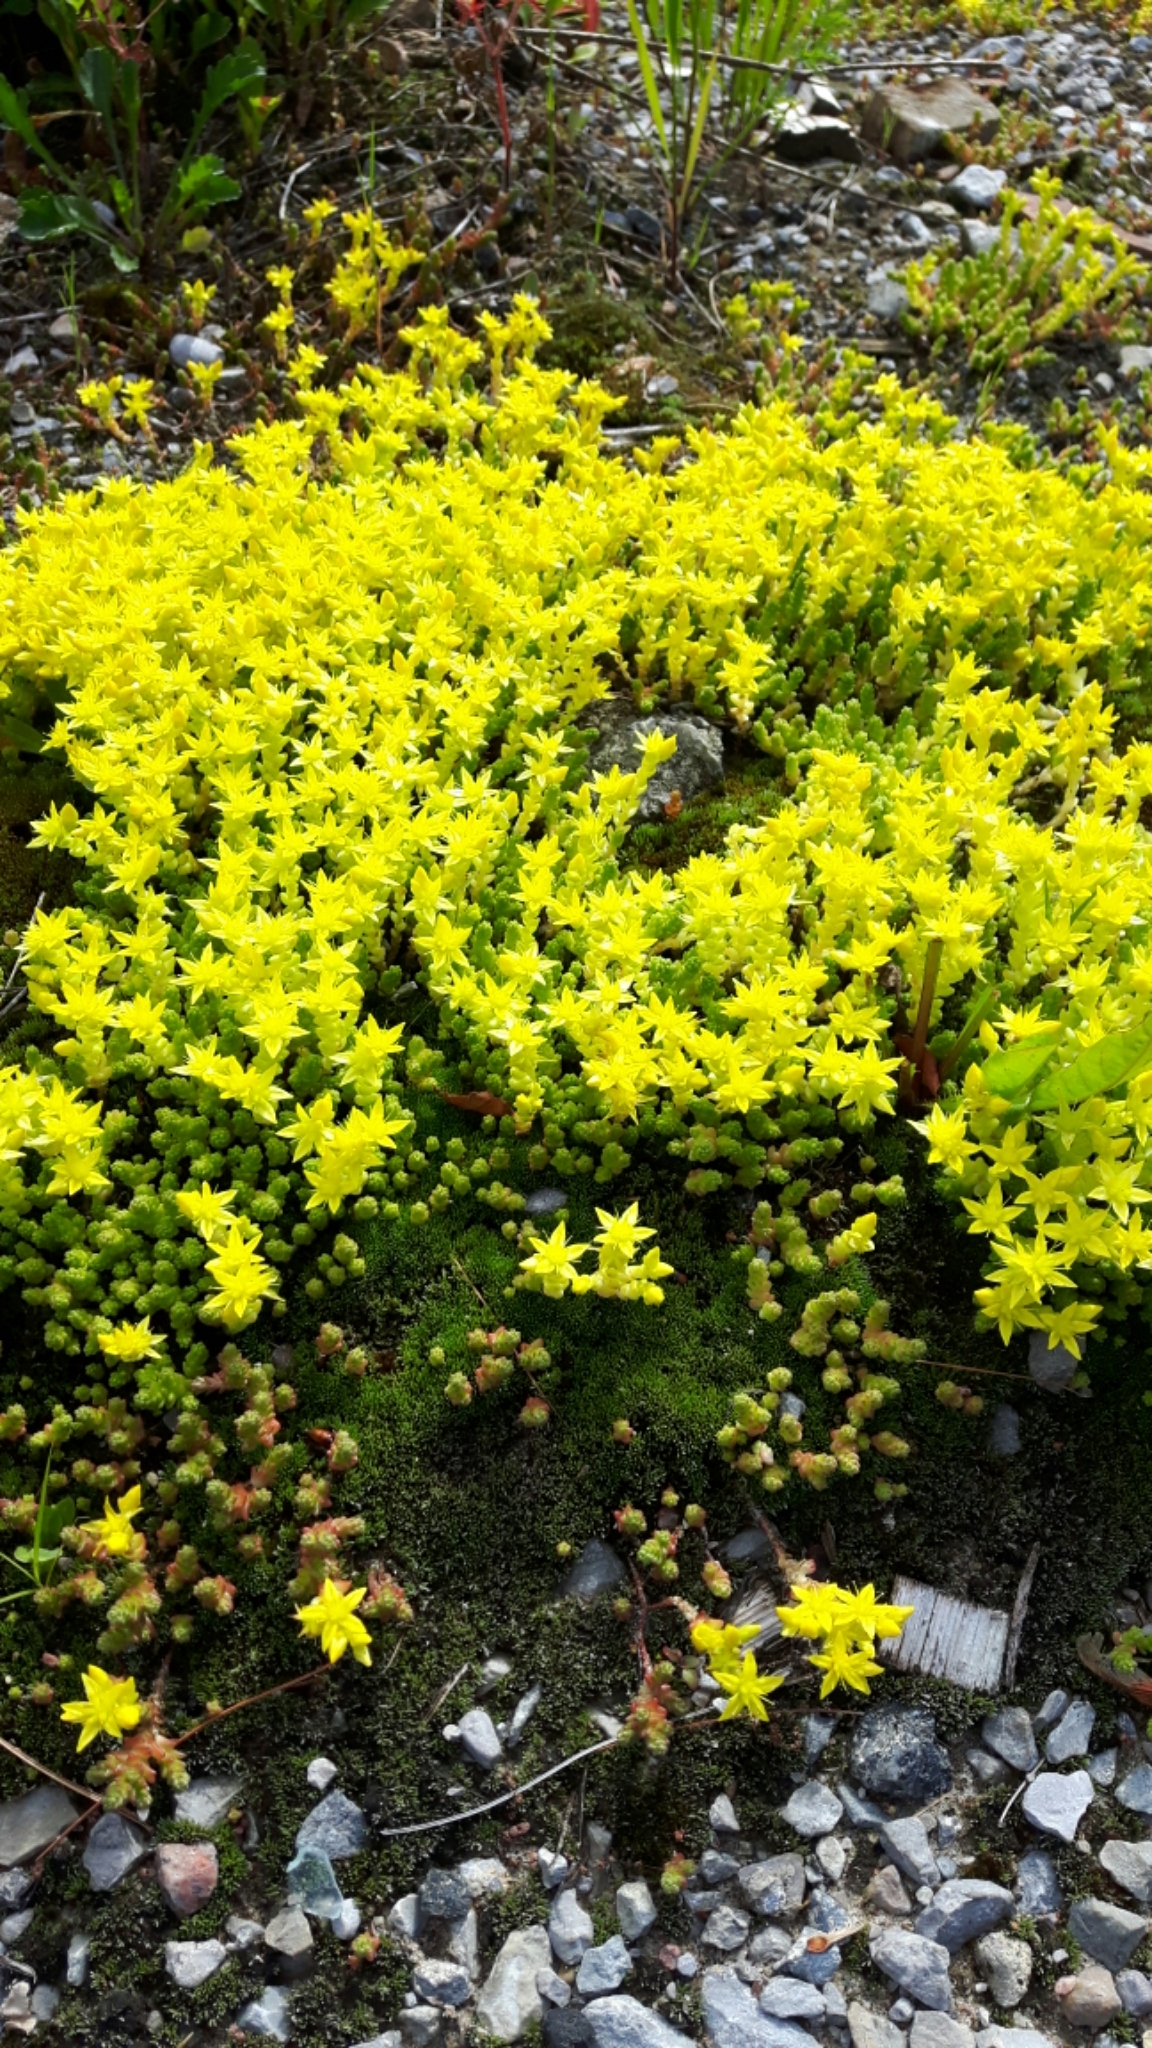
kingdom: Plantae
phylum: Tracheophyta
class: Magnoliopsida
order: Saxifragales
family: Crassulaceae
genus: Sedum
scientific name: Sedum acre
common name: Biting stonecrop
